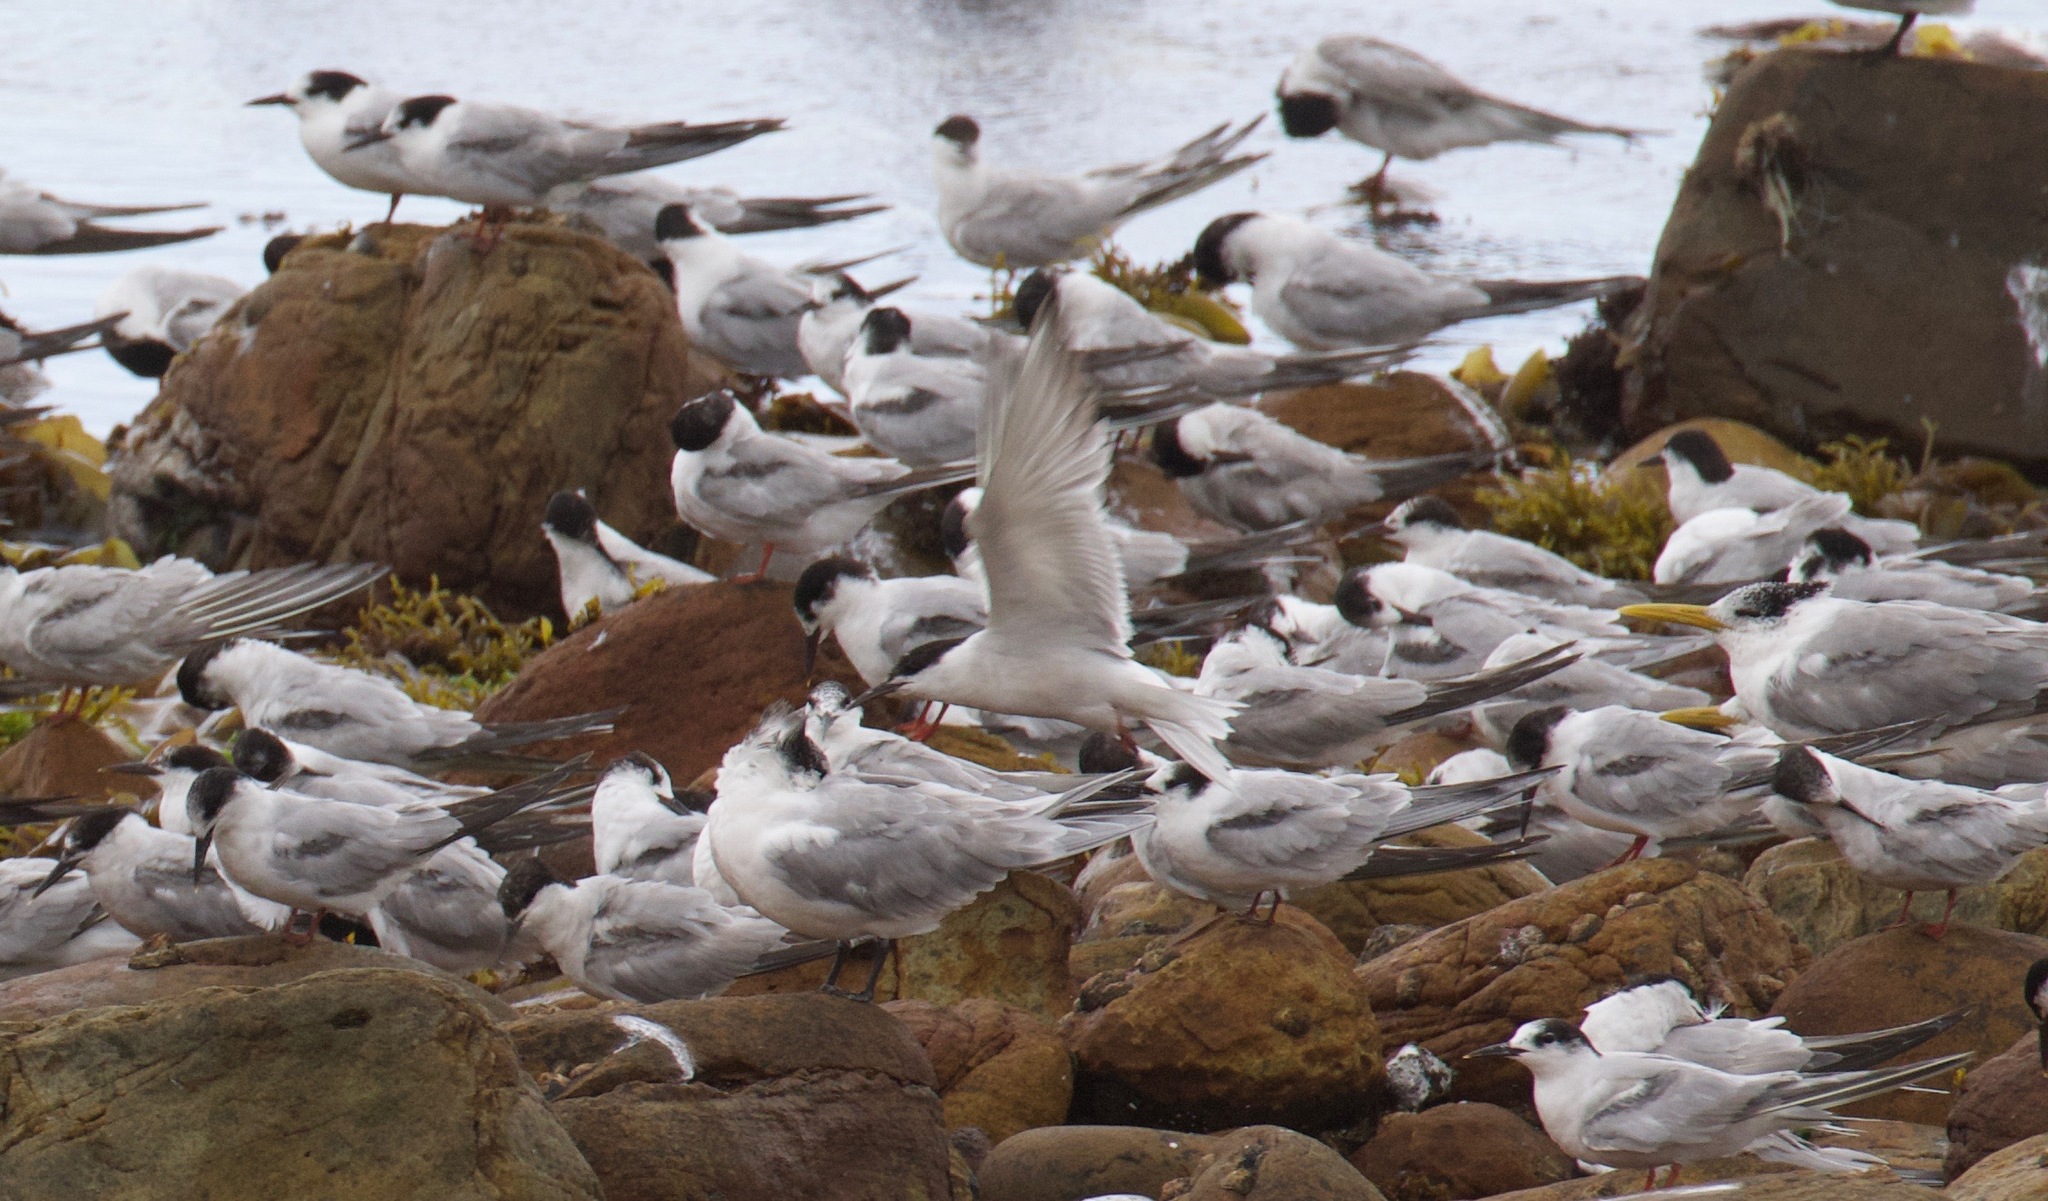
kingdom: Animalia
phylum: Chordata
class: Aves
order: Charadriiformes
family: Laridae
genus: Sterna
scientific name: Sterna hirundo
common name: Common tern
